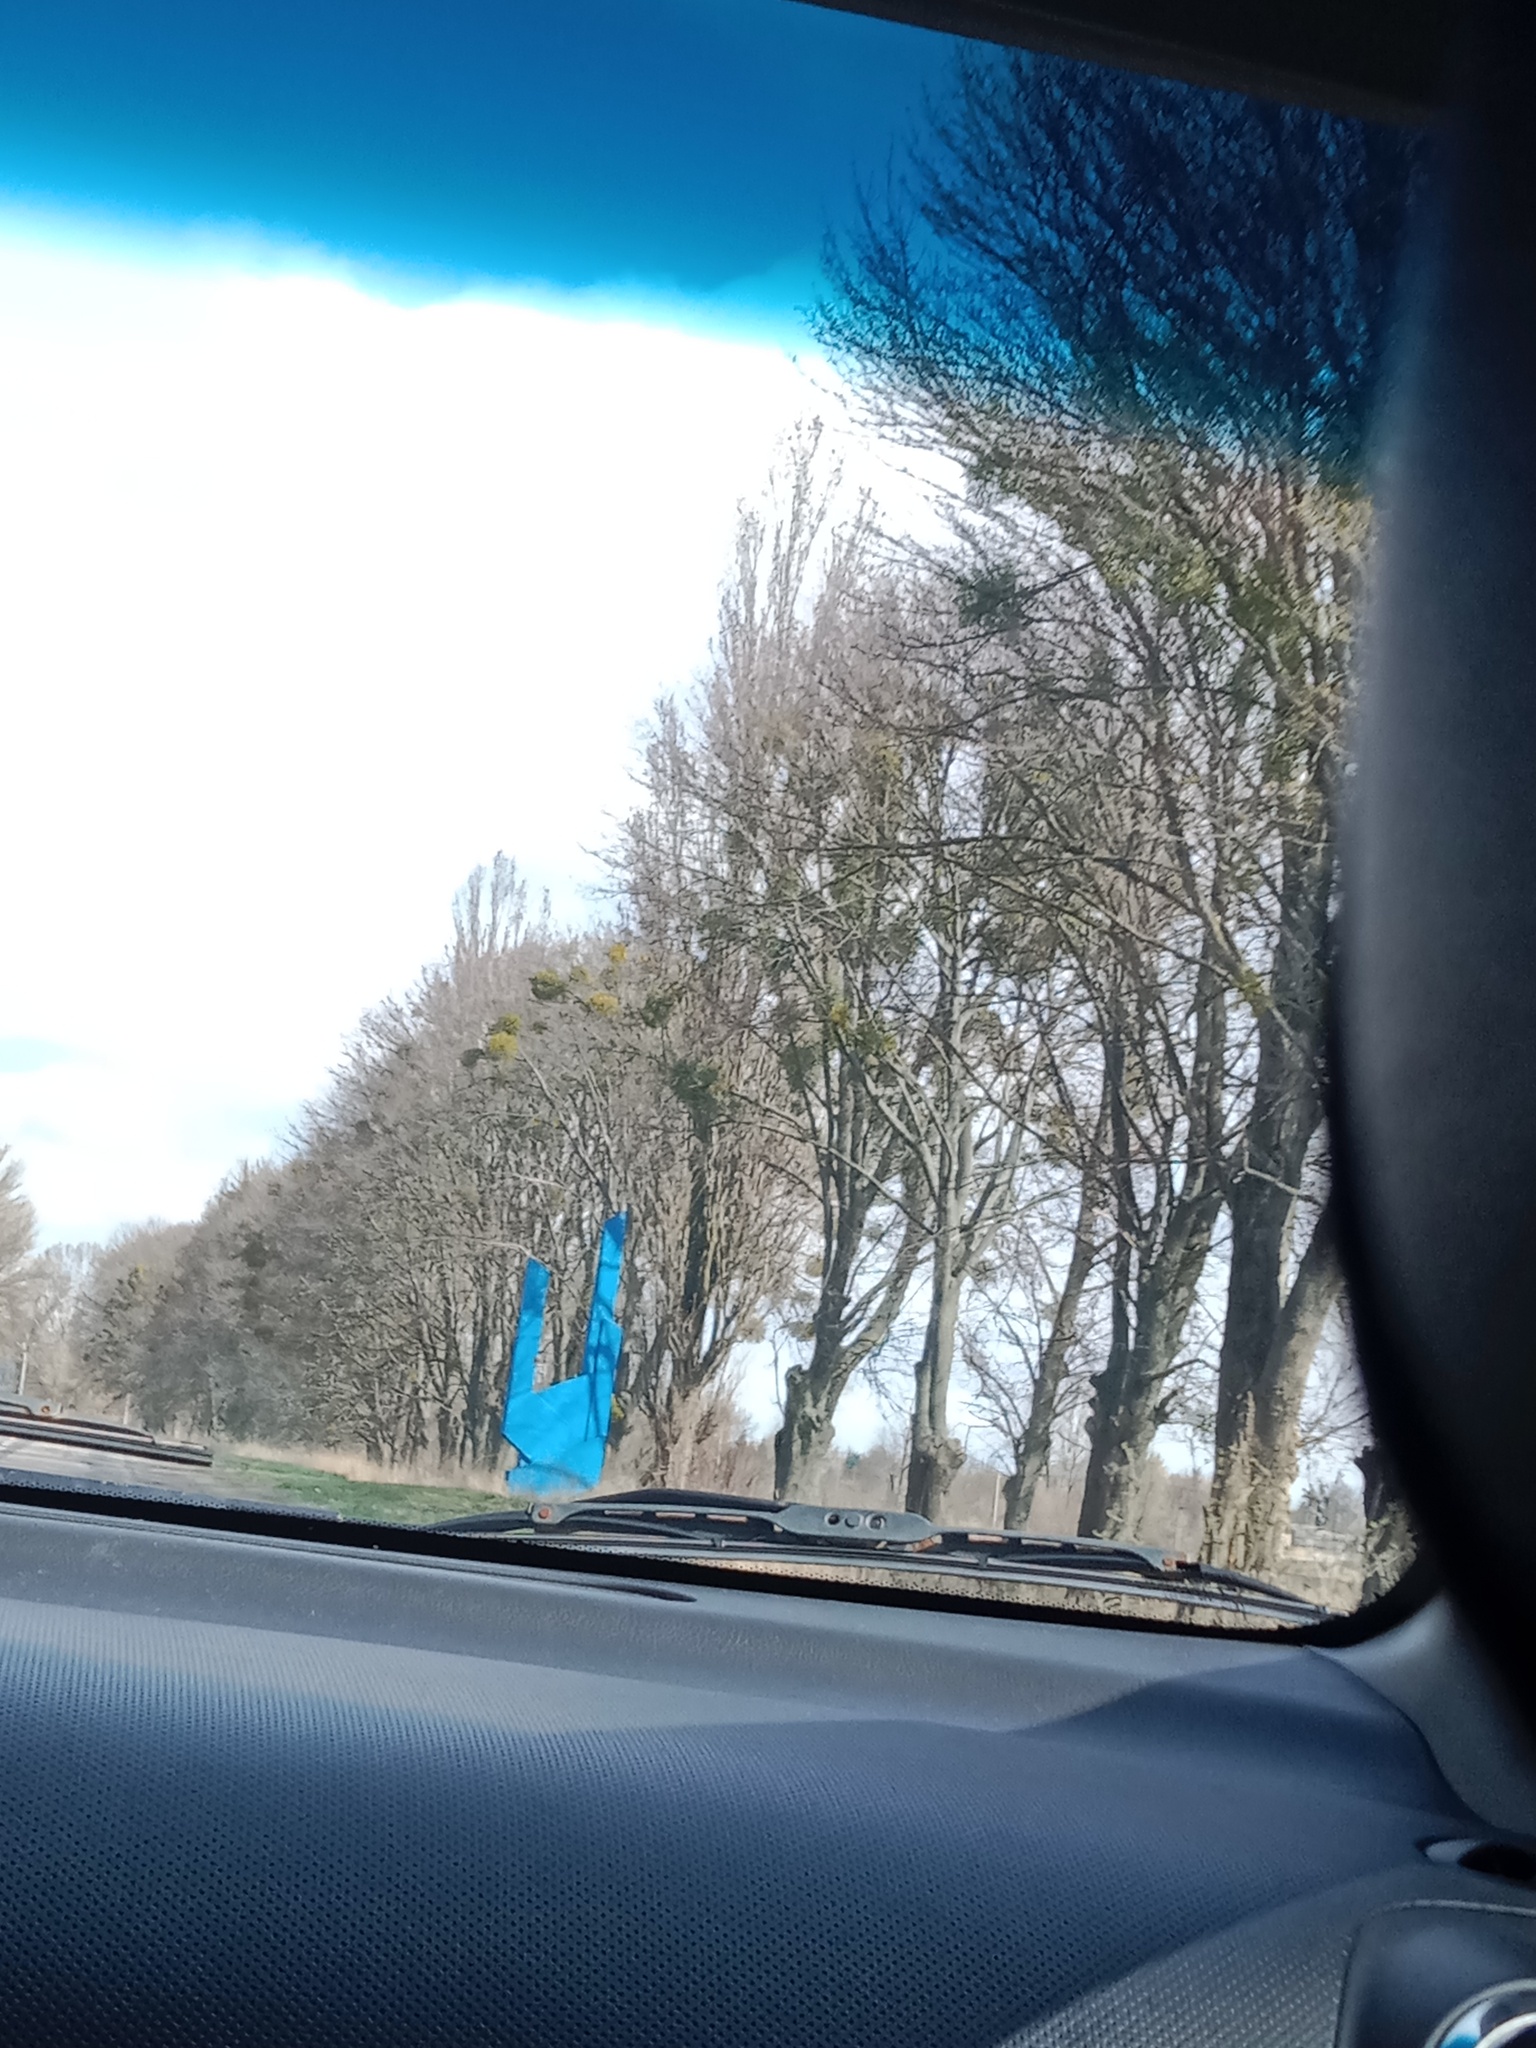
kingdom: Plantae
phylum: Tracheophyta
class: Magnoliopsida
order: Santalales
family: Viscaceae
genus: Viscum
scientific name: Viscum album
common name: Mistletoe
